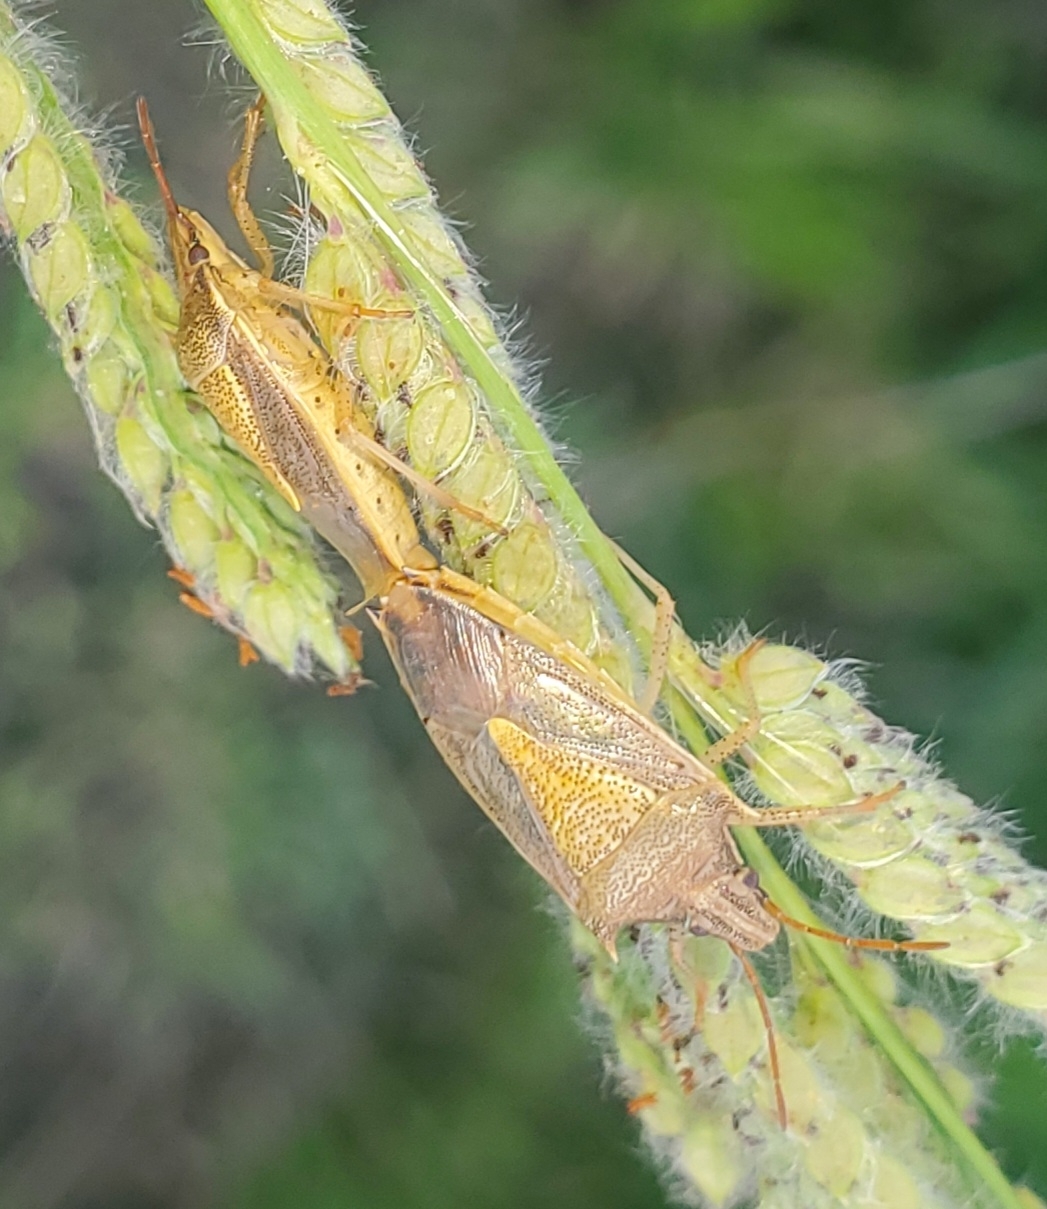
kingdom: Animalia
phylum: Arthropoda
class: Insecta
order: Hemiptera
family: Pentatomidae
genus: Oebalus
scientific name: Oebalus pugnax
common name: Rice stink bug
